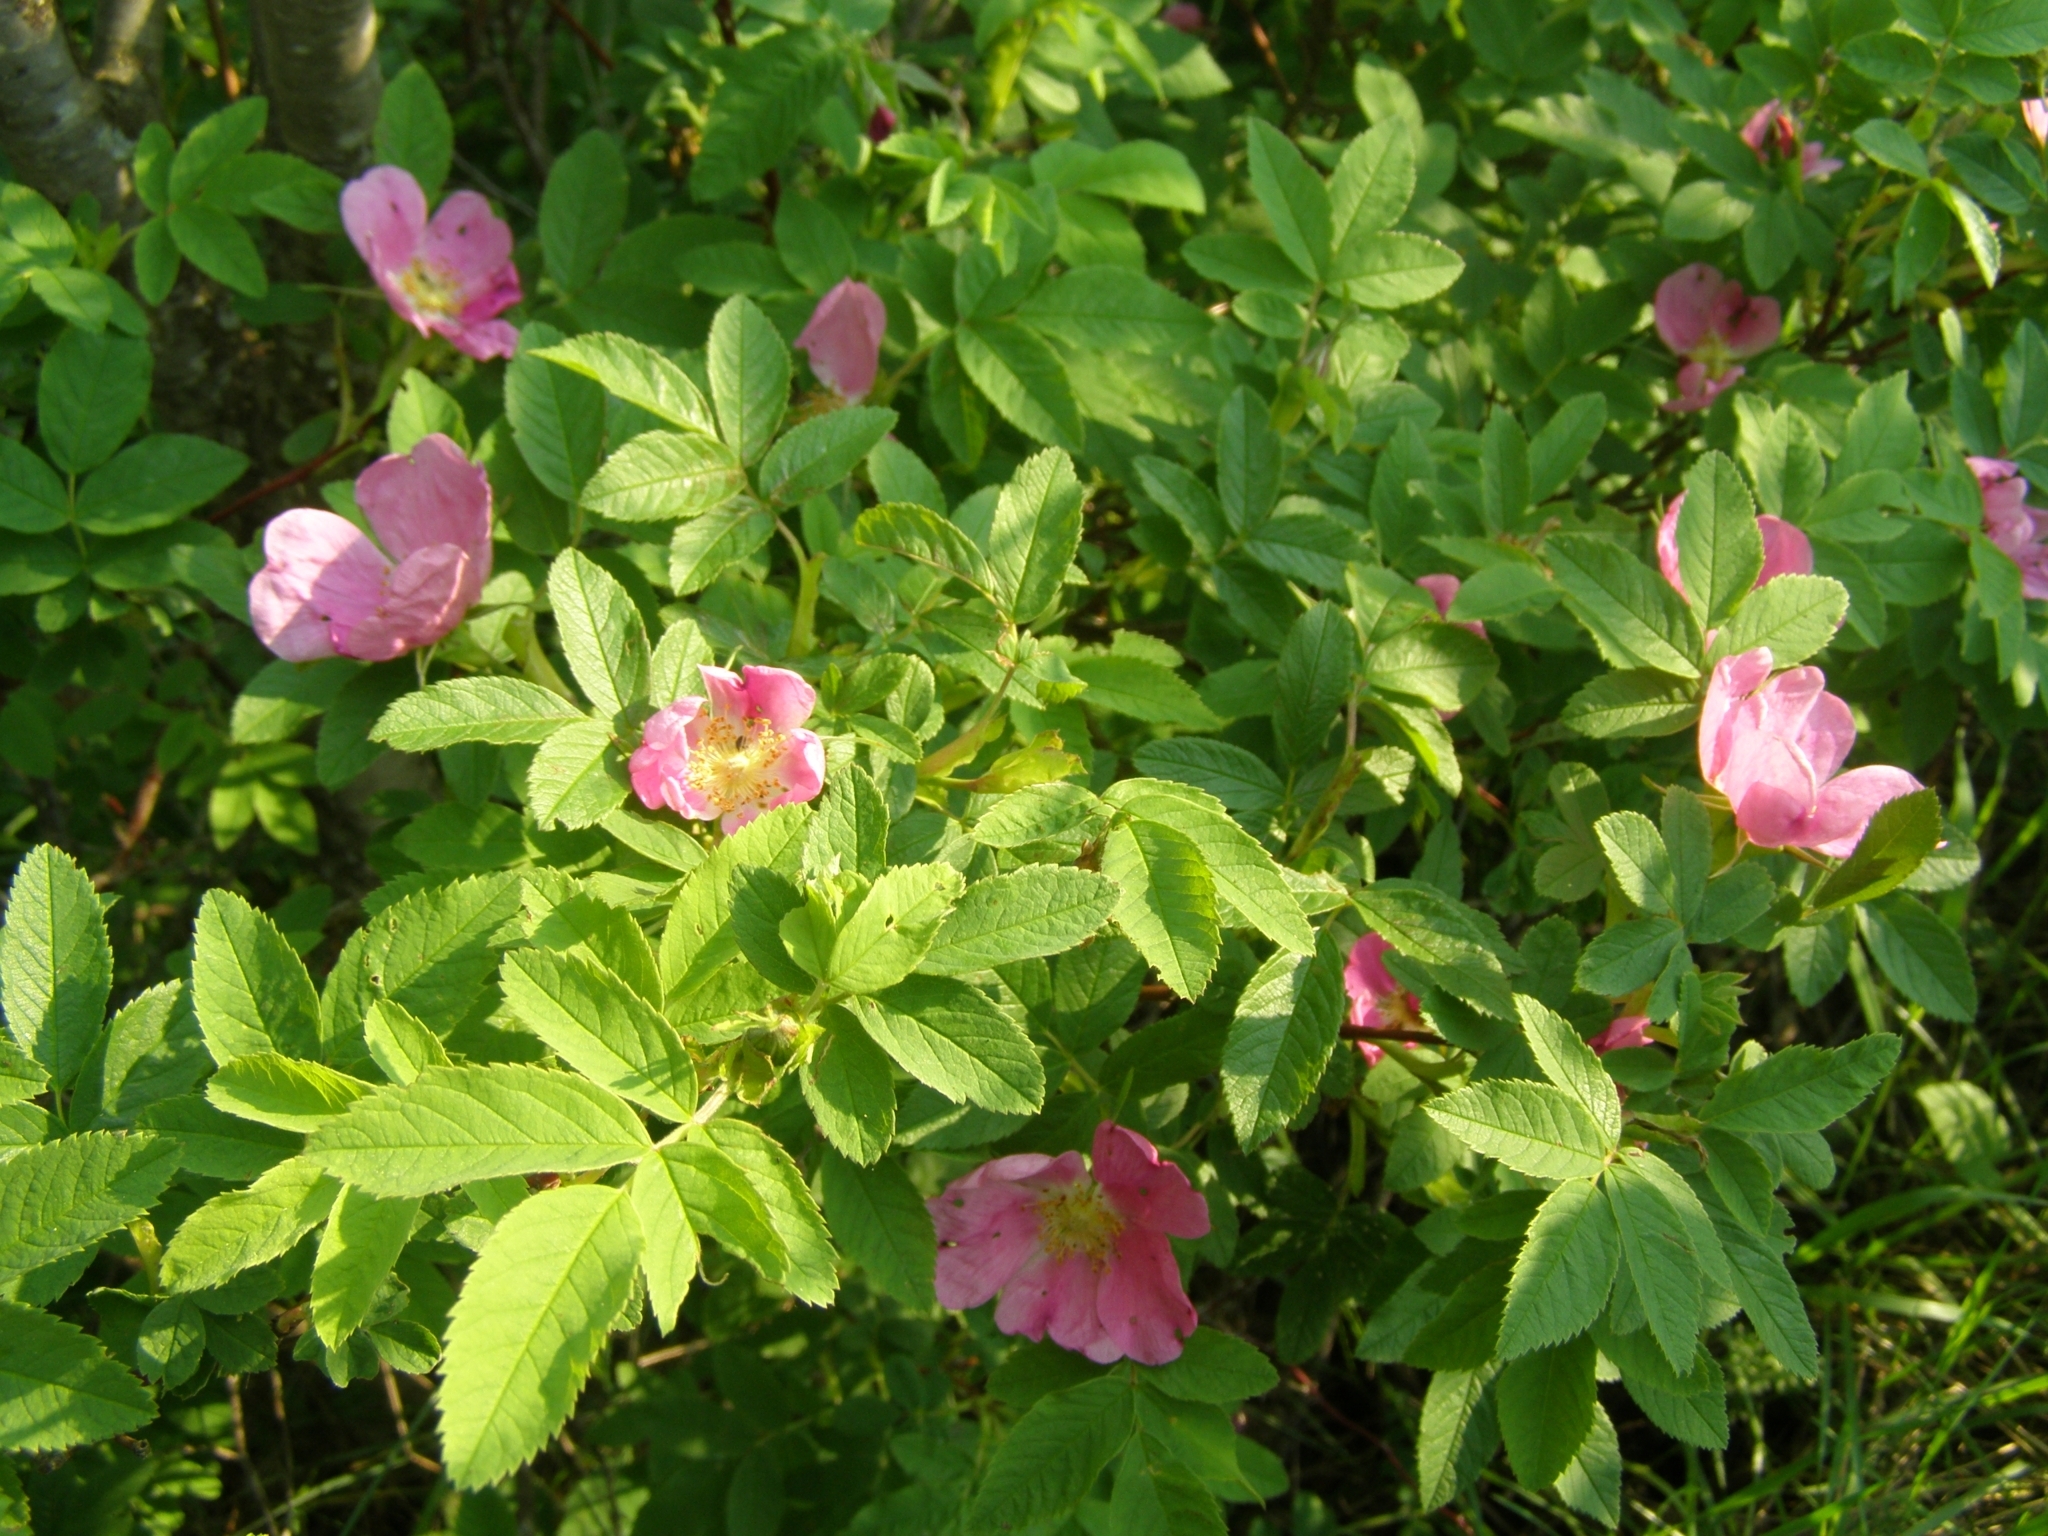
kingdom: Plantae
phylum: Tracheophyta
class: Magnoliopsida
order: Rosales
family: Rosaceae
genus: Rosa
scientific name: Rosa majalis
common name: Cinnamon rose
